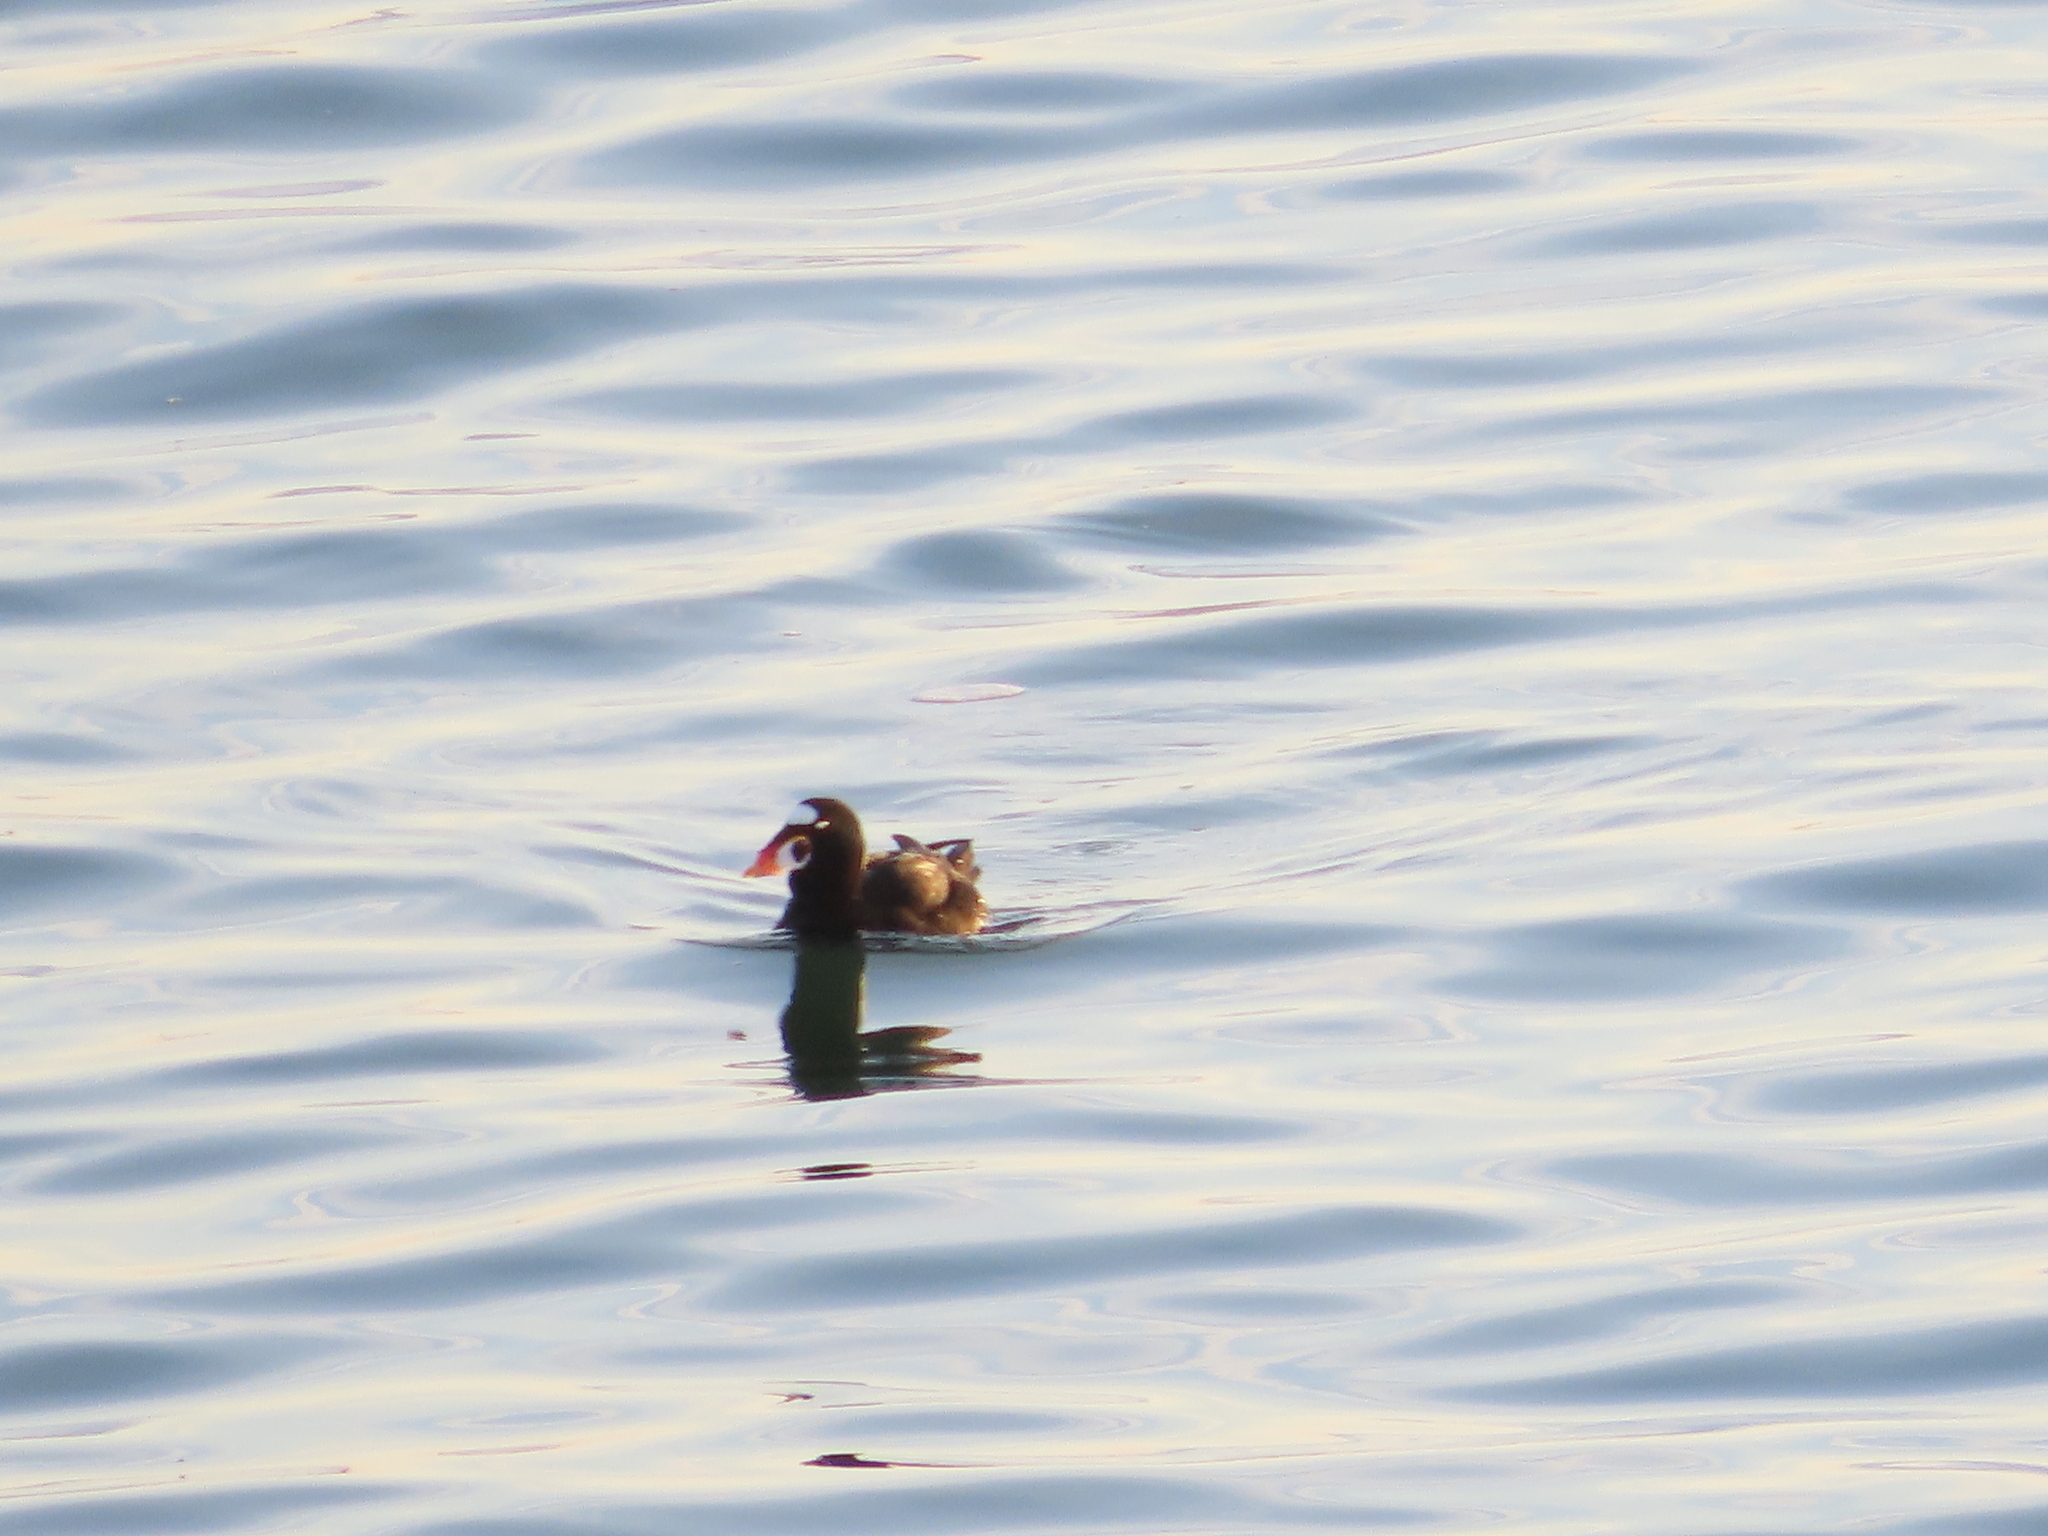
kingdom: Animalia
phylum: Chordata
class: Aves
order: Anseriformes
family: Anatidae
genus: Melanitta
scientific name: Melanitta perspicillata
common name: Surf scoter
